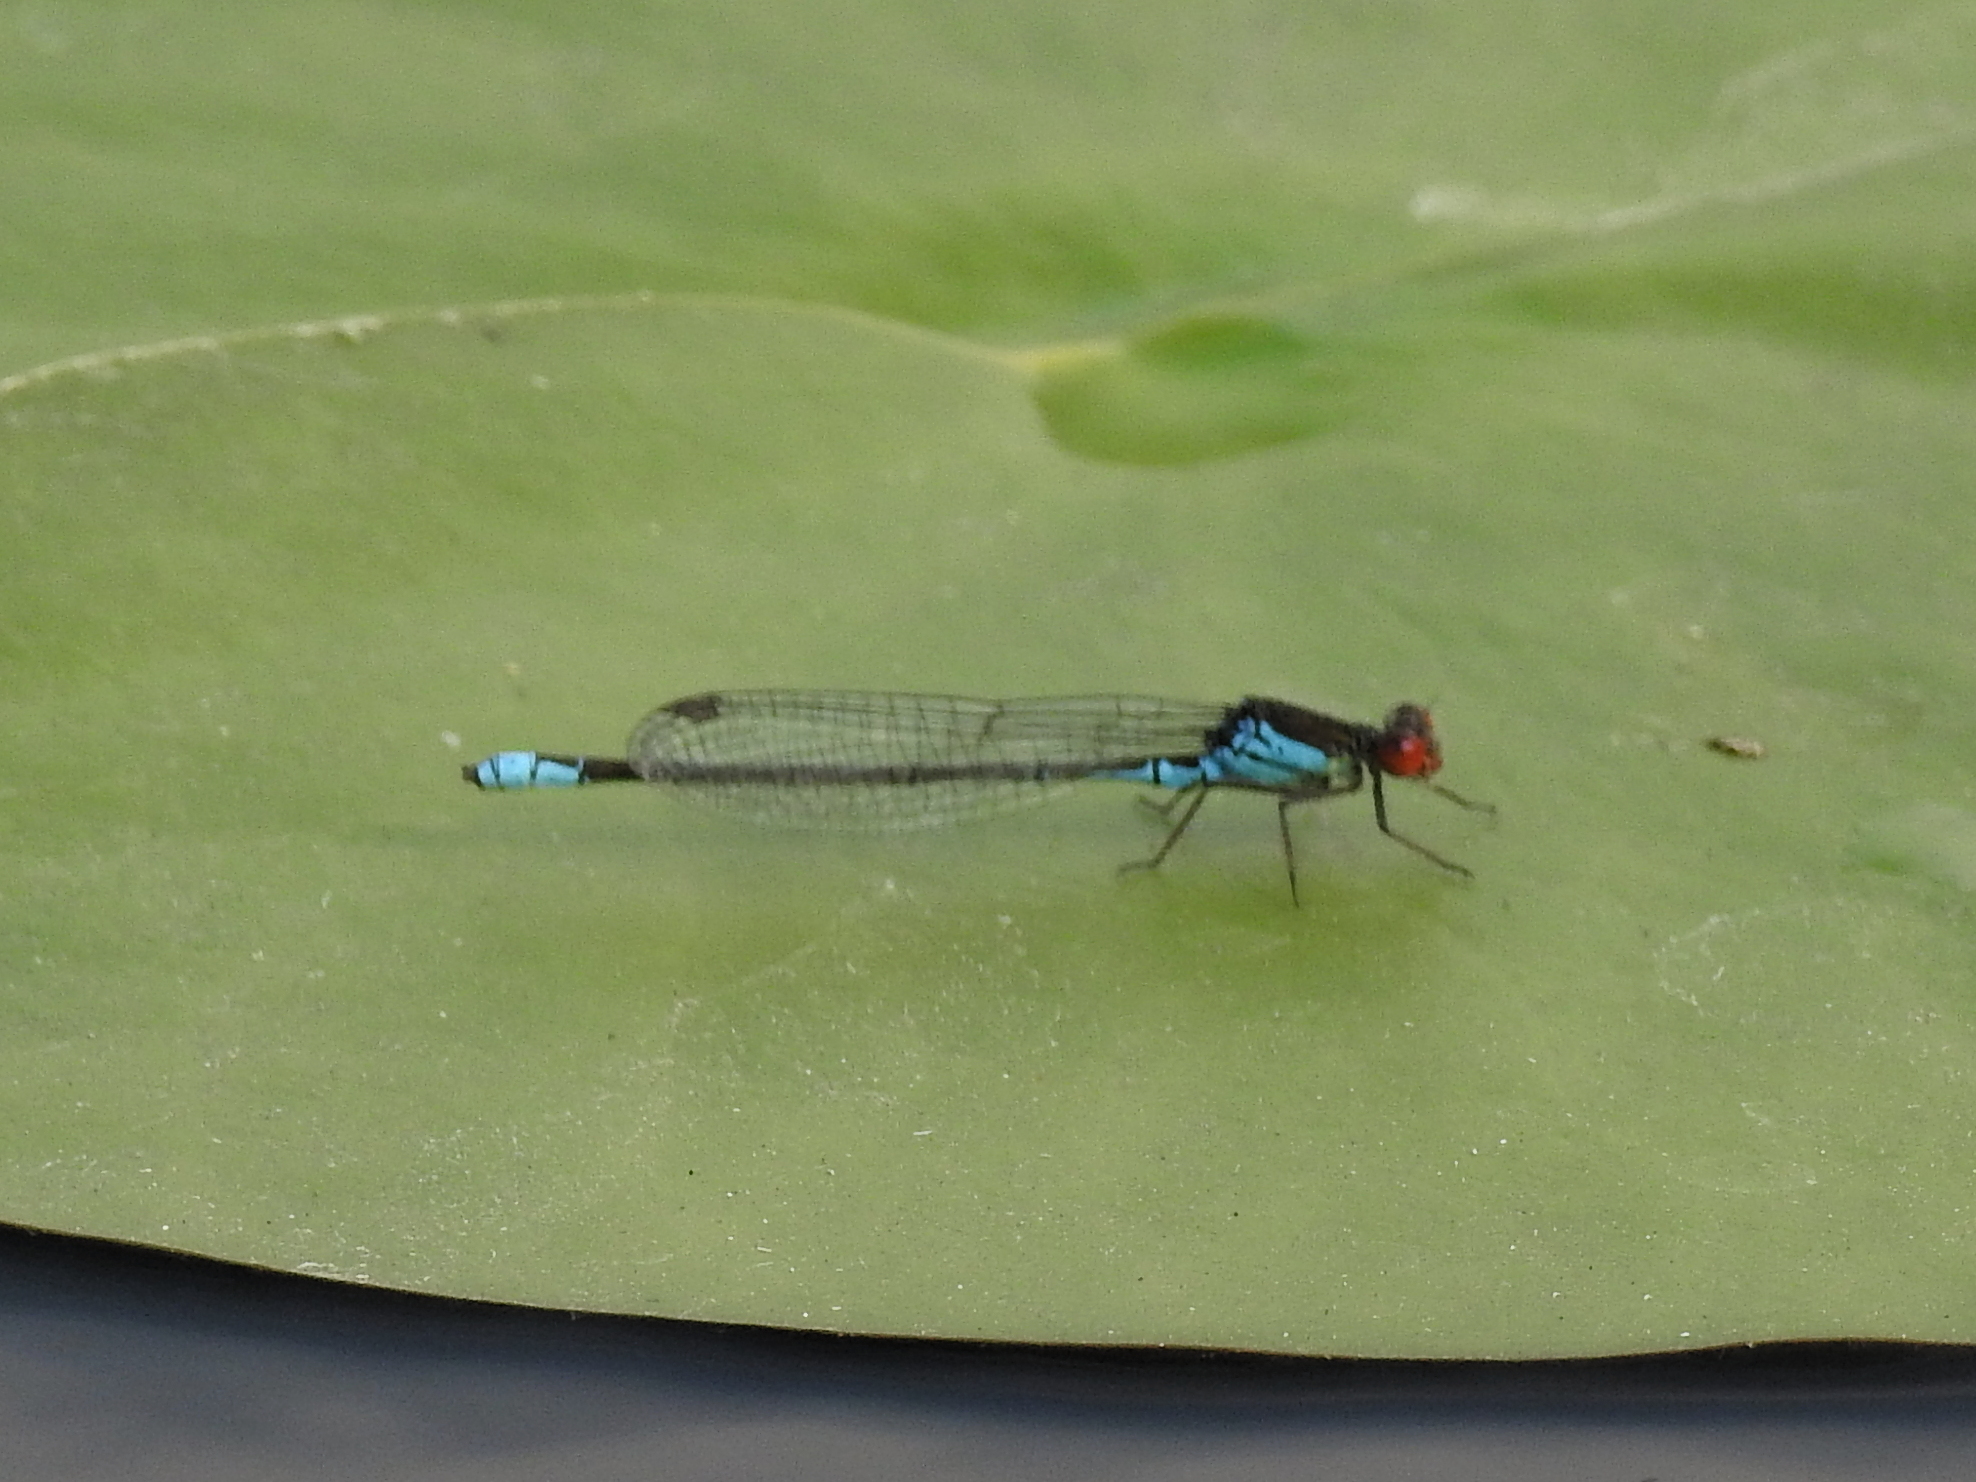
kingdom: Animalia
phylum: Arthropoda
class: Insecta
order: Odonata
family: Coenagrionidae
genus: Erythromma
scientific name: Erythromma viridulum
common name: Small red-eyed damselfly
